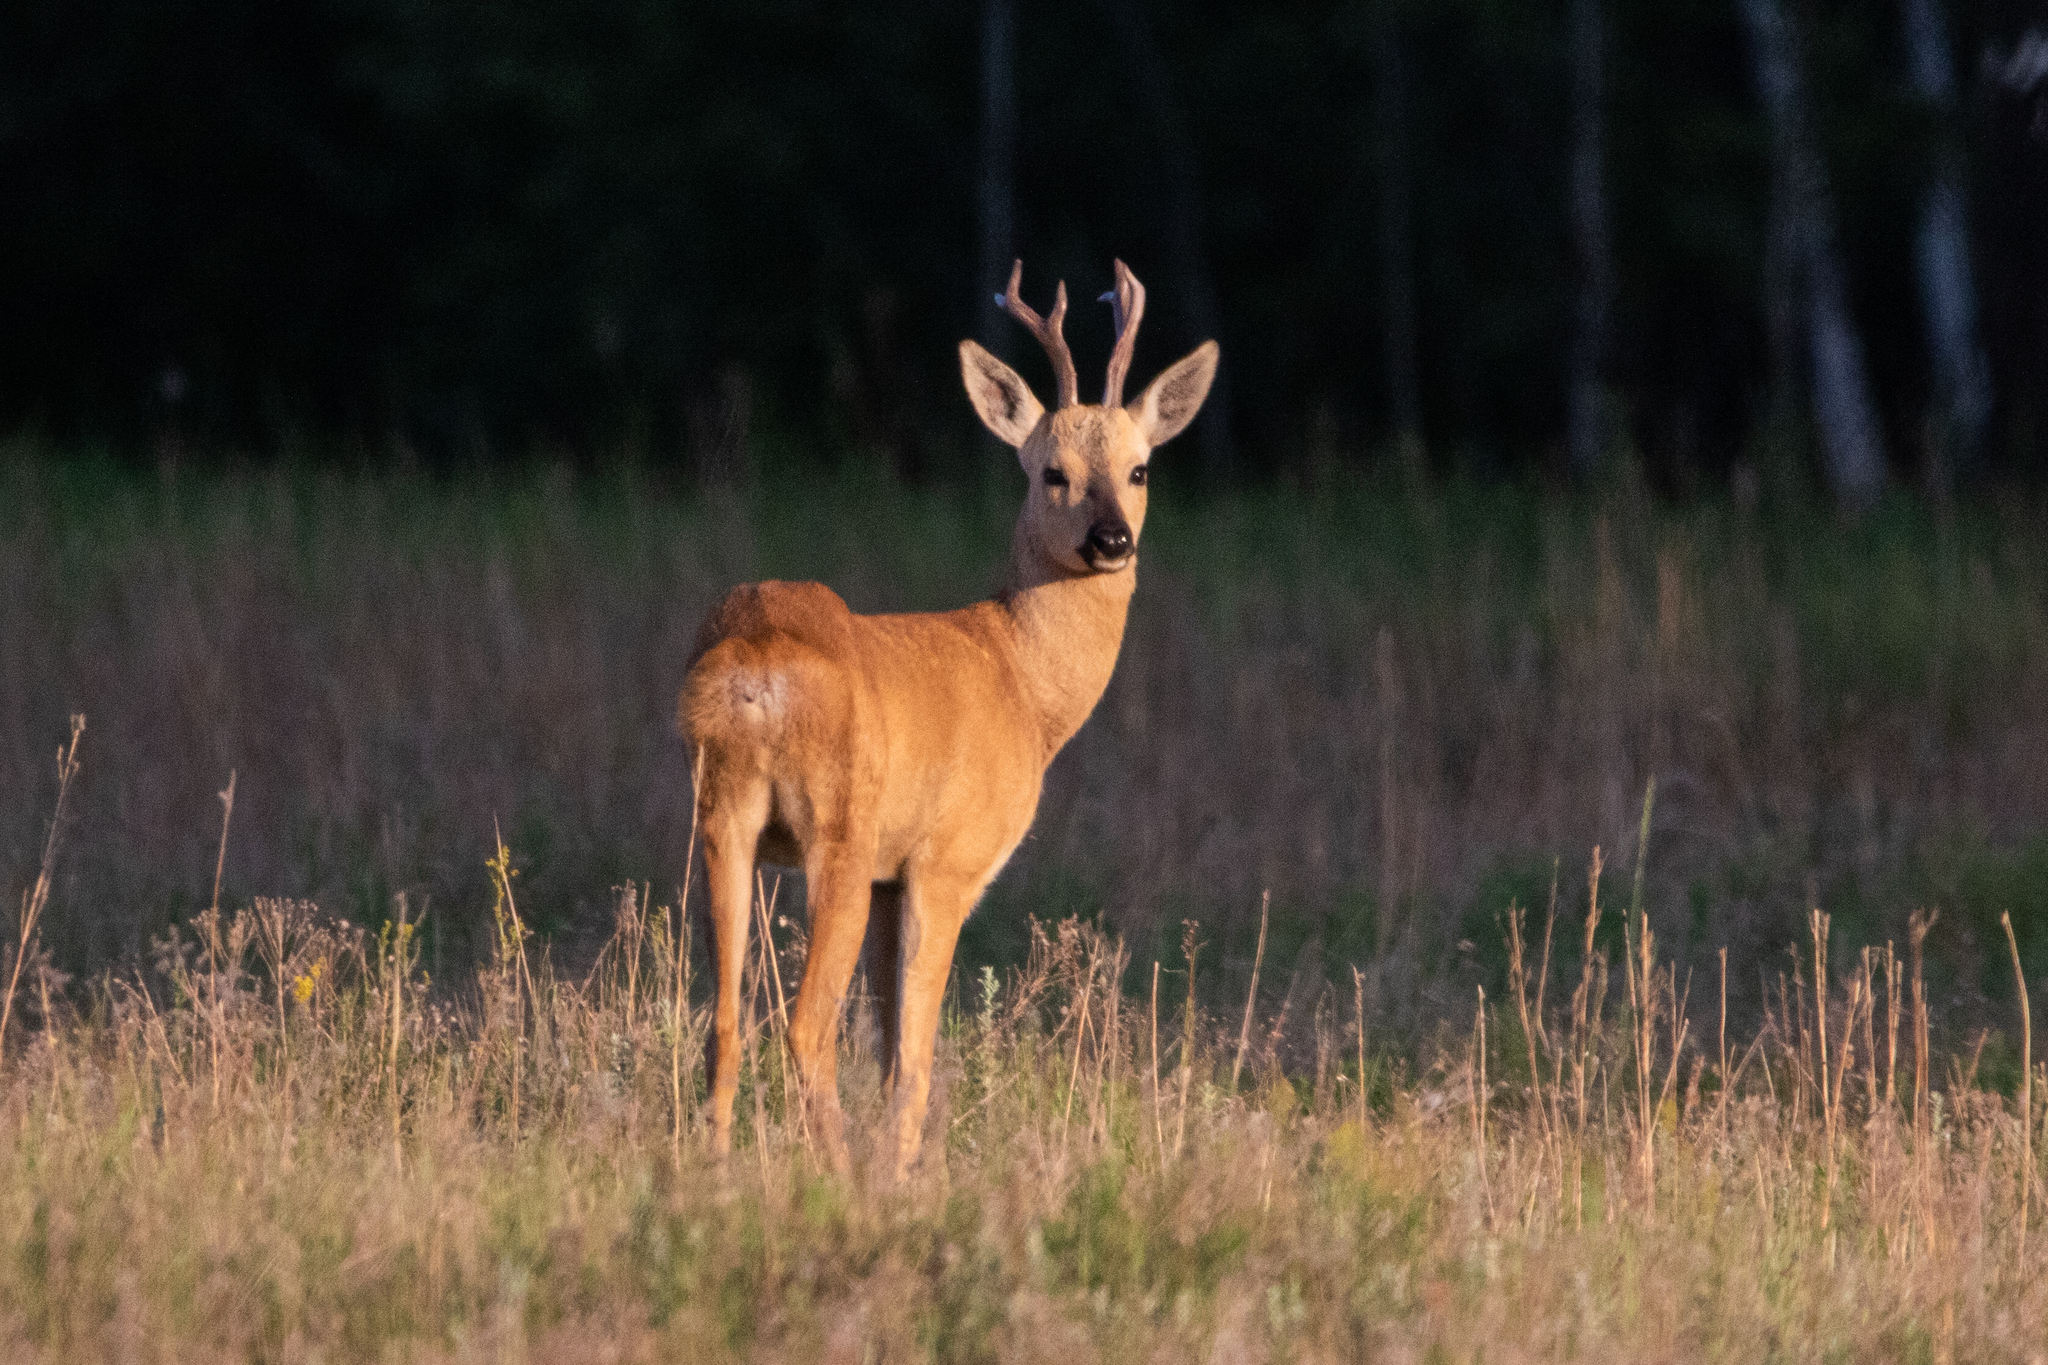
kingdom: Animalia
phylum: Chordata
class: Mammalia
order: Artiodactyla
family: Cervidae
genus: Capreolus
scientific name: Capreolus pygargus
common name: Siberian roe
